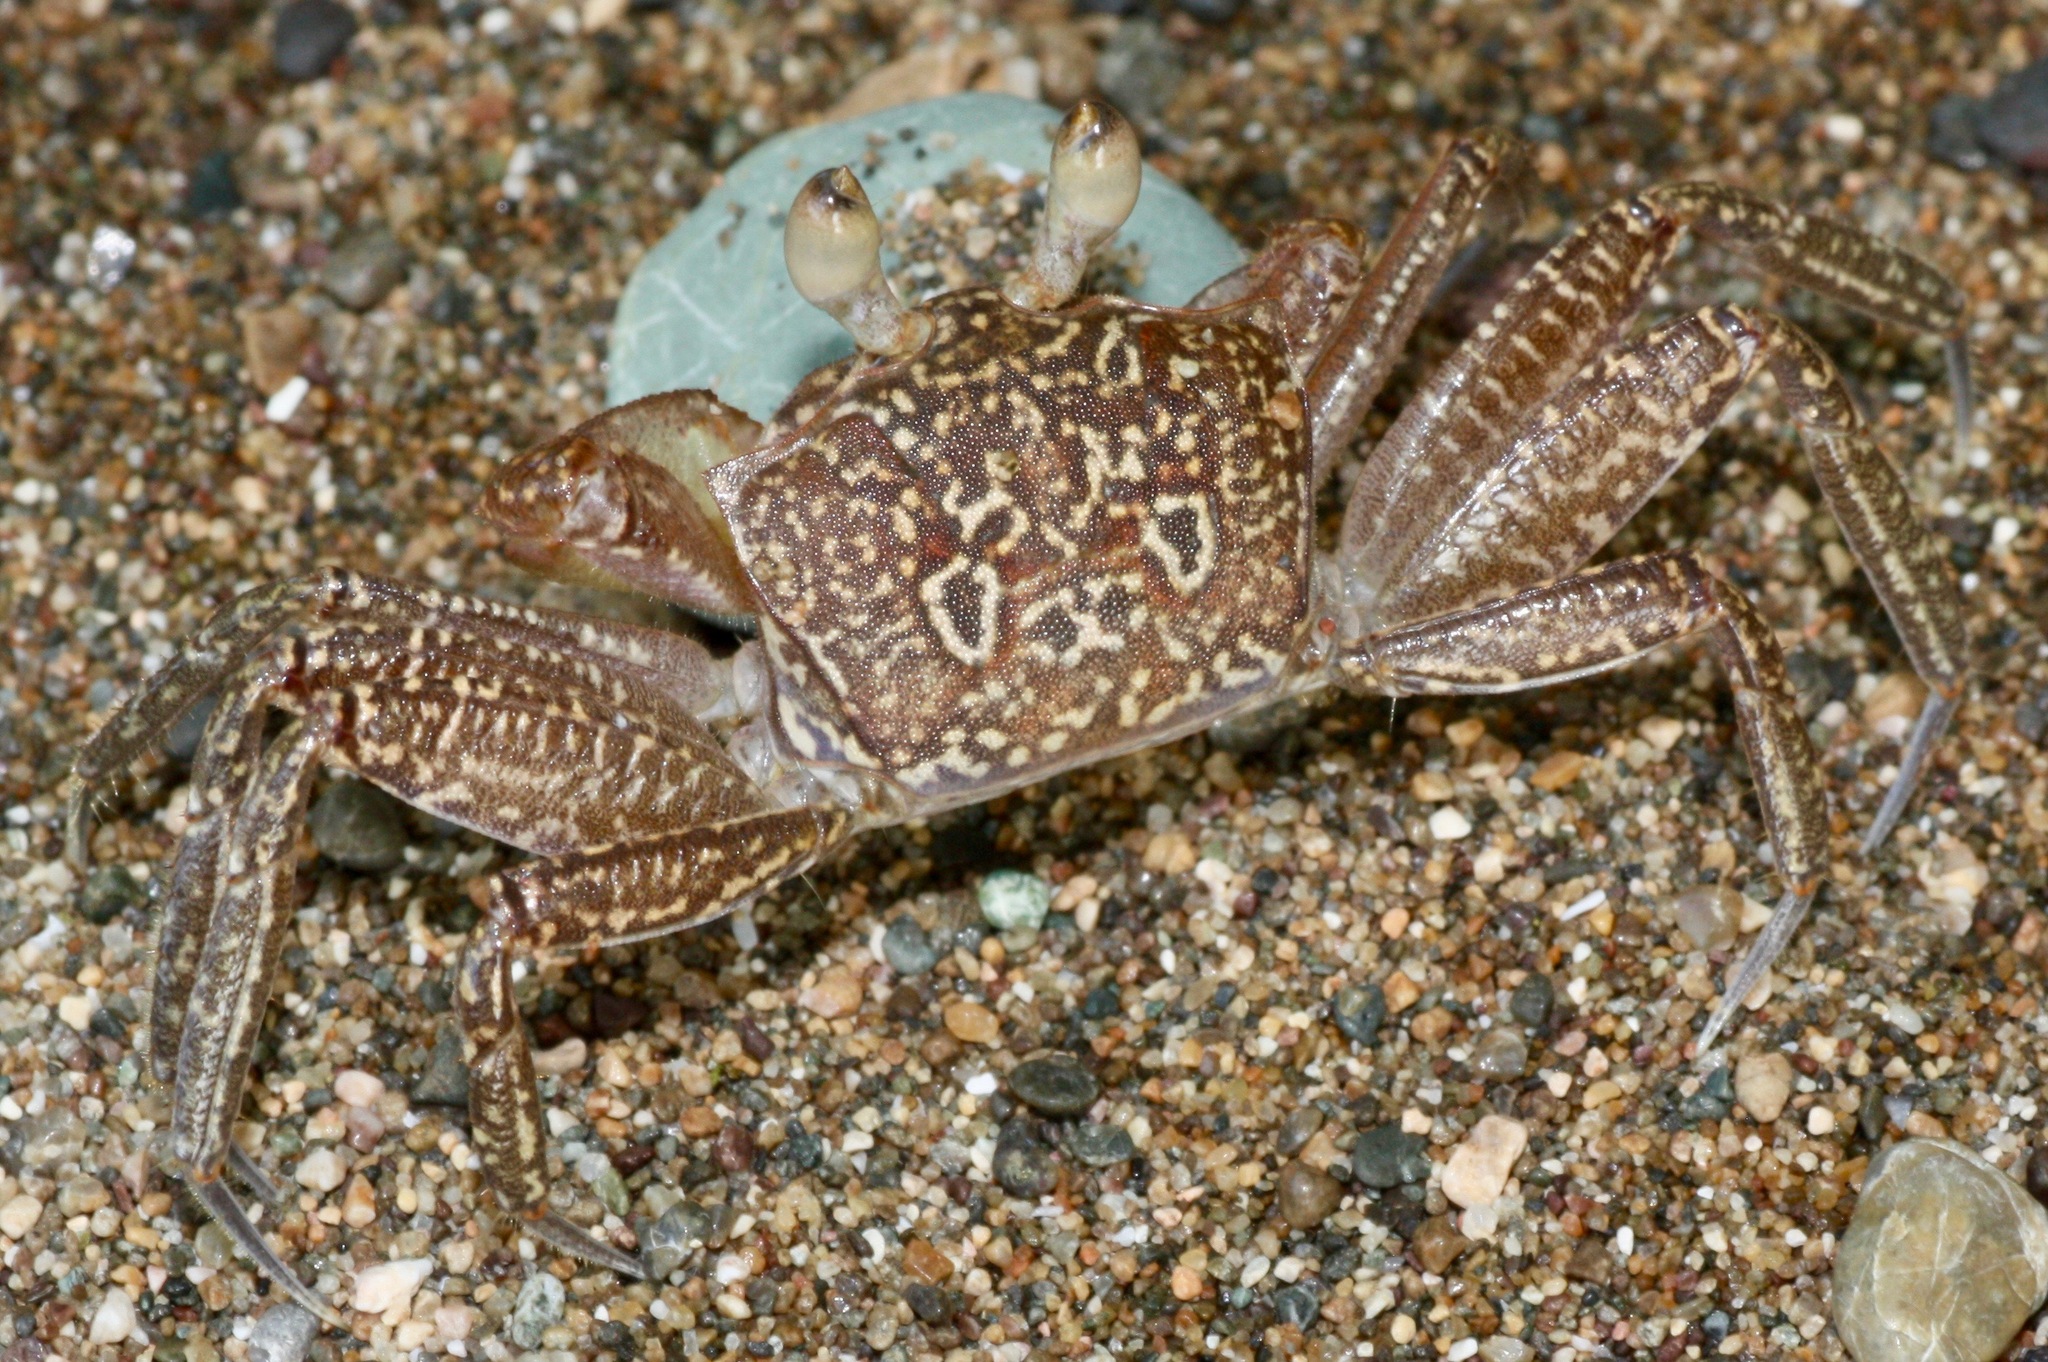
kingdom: Animalia
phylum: Arthropoda
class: Malacostraca
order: Decapoda
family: Ocypodidae
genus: Ocypode
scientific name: Ocypode gaudichaudii
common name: Pacific ghost crab
